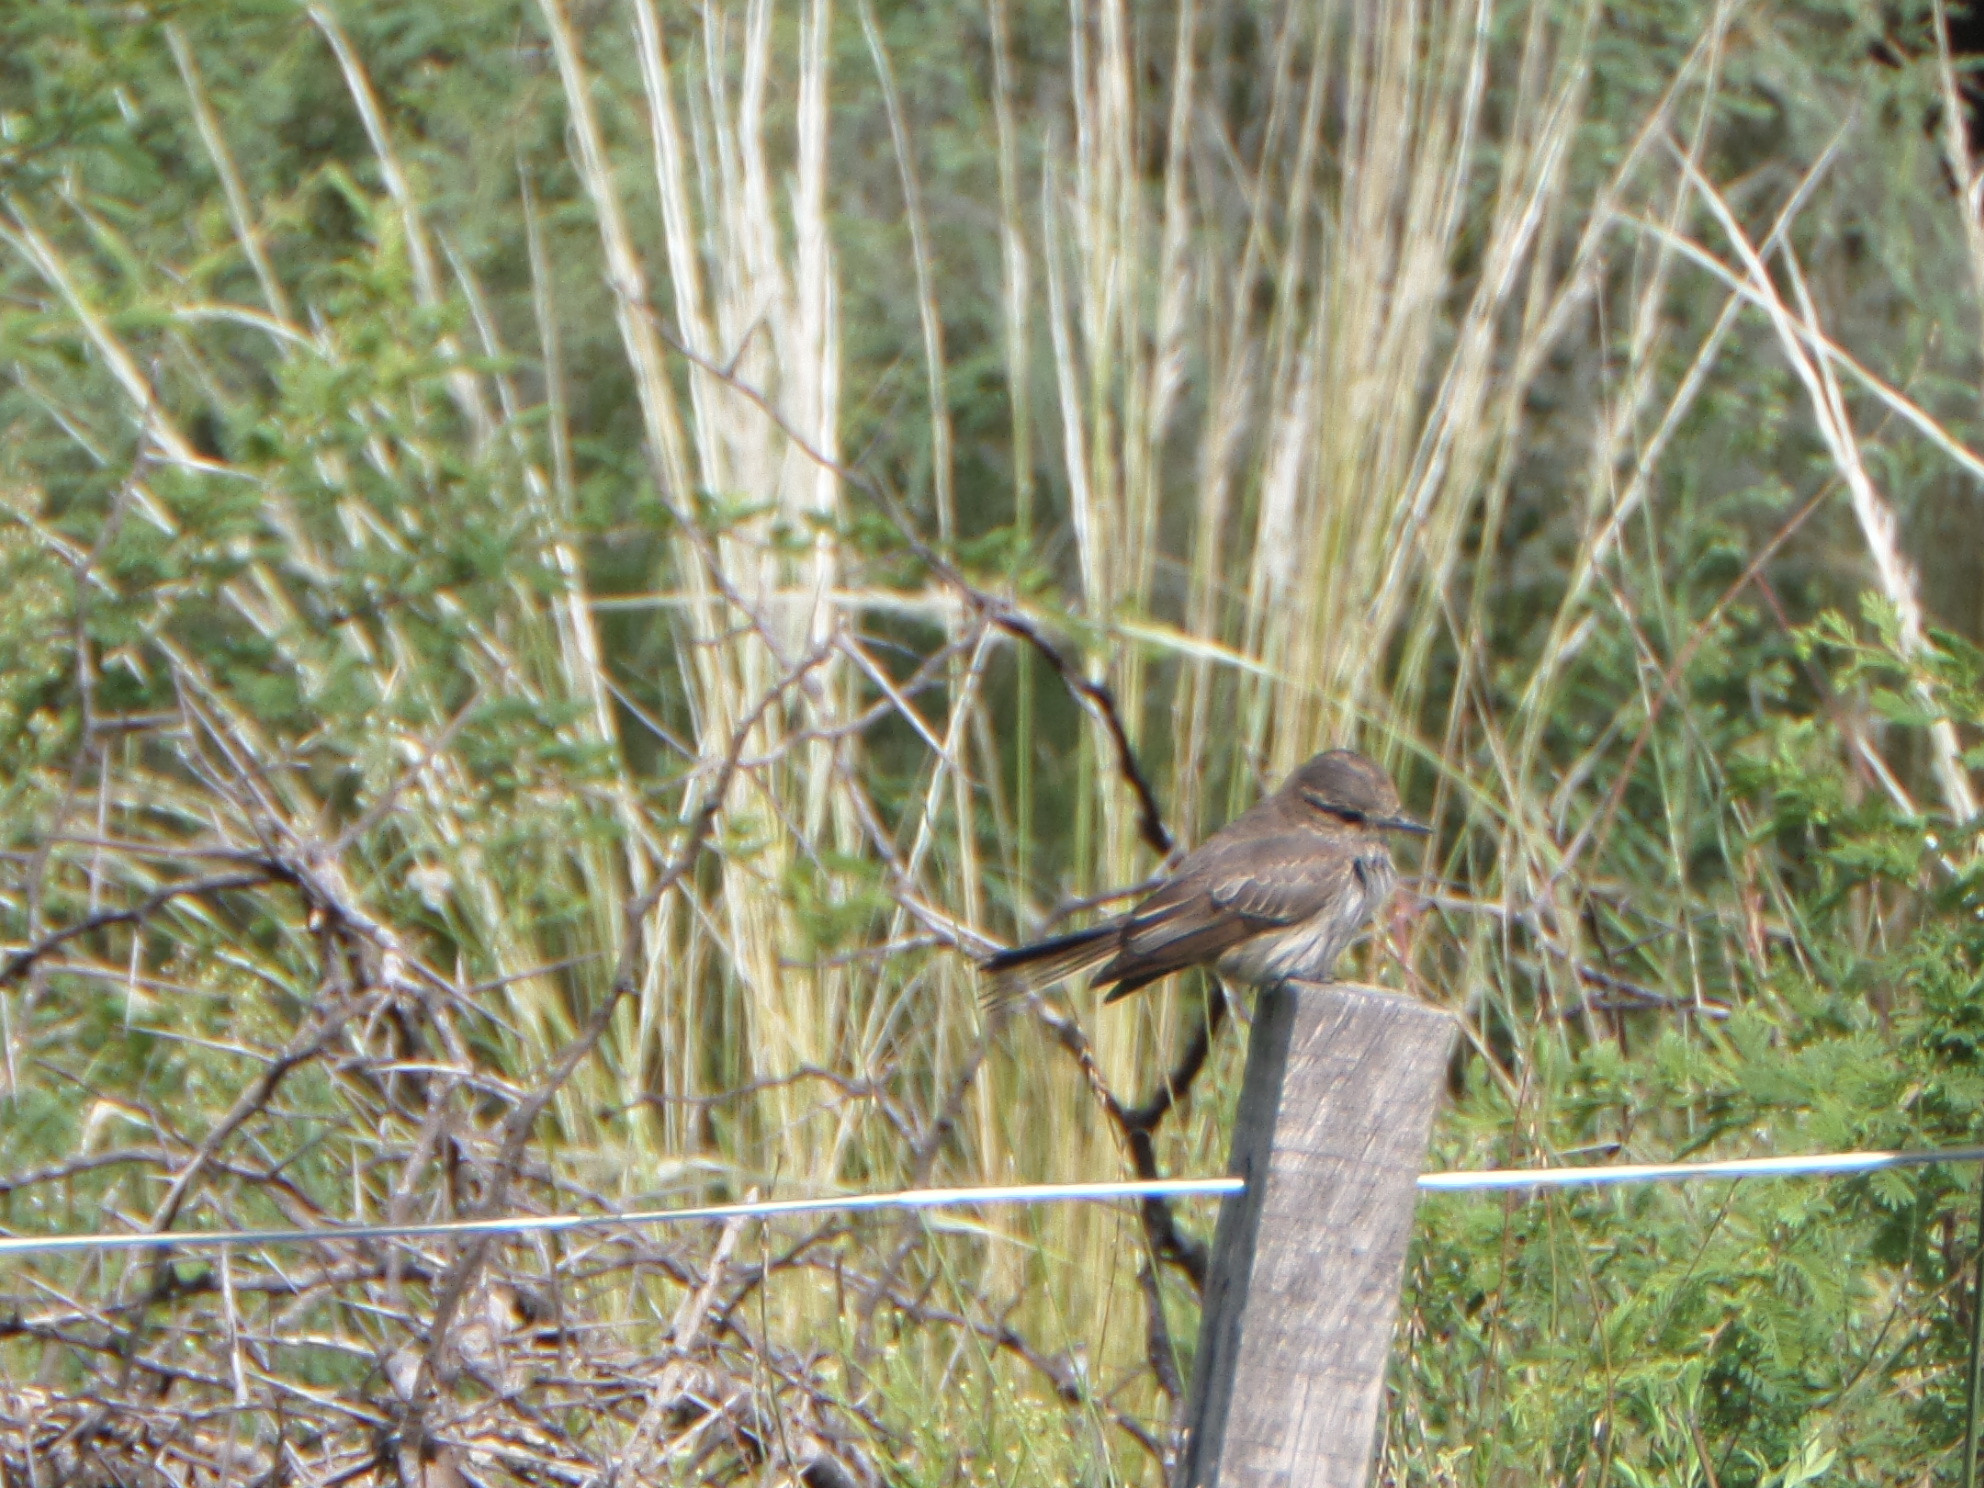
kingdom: Animalia
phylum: Chordata
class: Aves
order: Passeriformes
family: Tyrannidae
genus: Pyrocephalus
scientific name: Pyrocephalus rubinus
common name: Vermilion flycatcher
